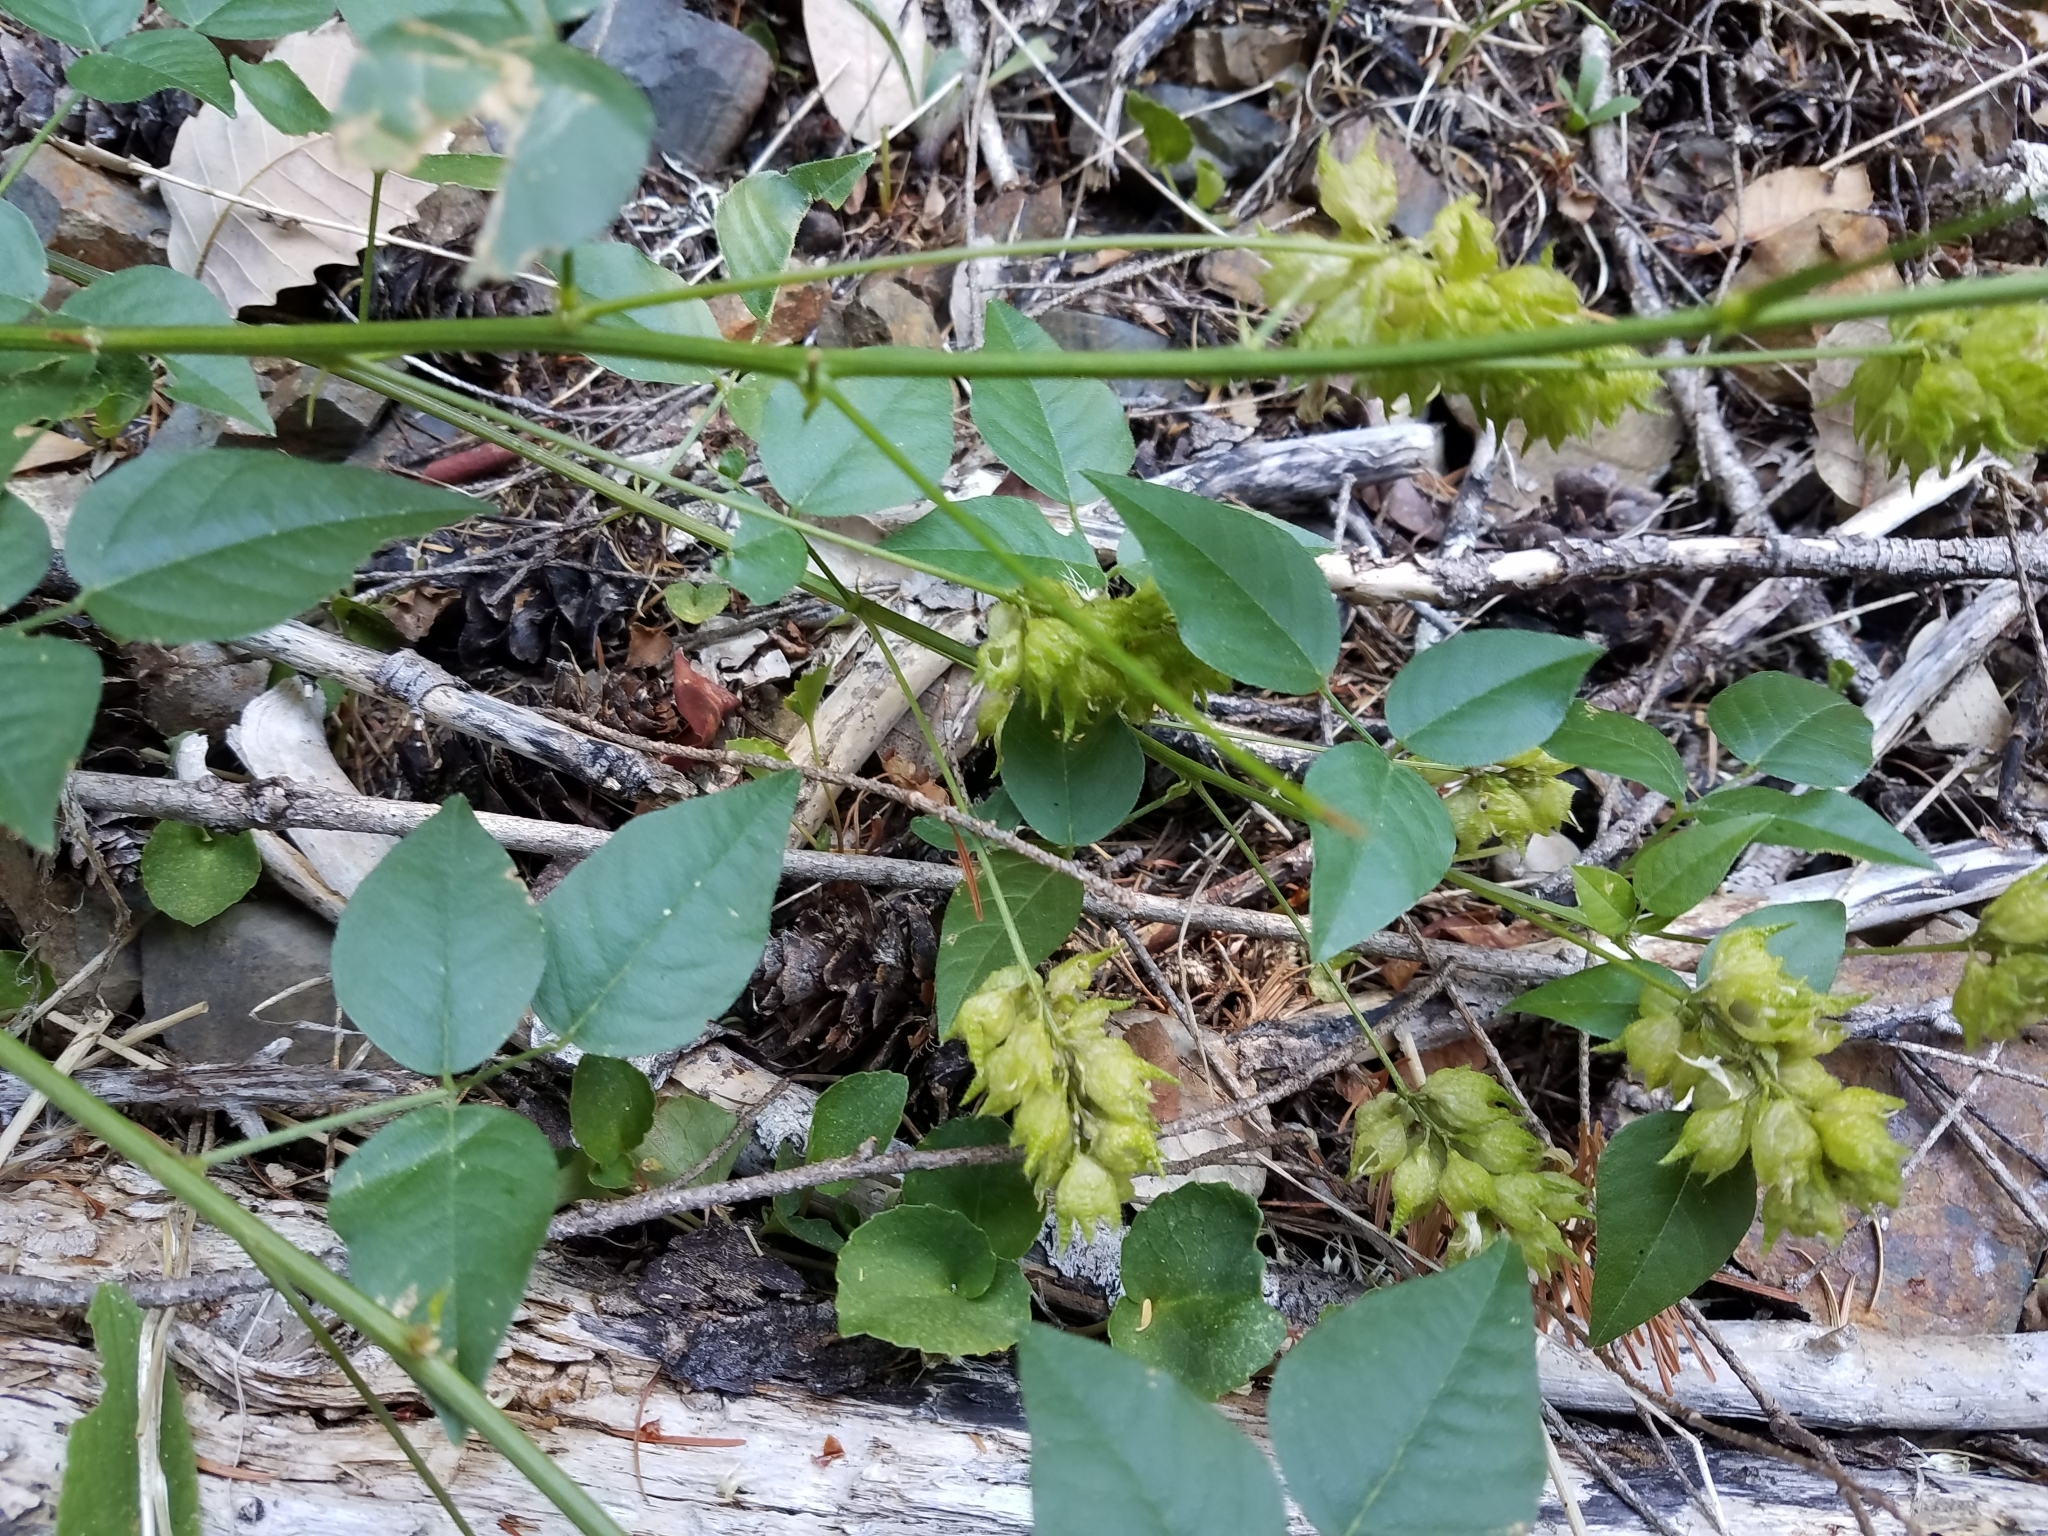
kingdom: Plantae
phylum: Tracheophyta
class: Magnoliopsida
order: Fabales
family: Fabaceae
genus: Rupertia
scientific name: Rupertia physodes
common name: California-tea
